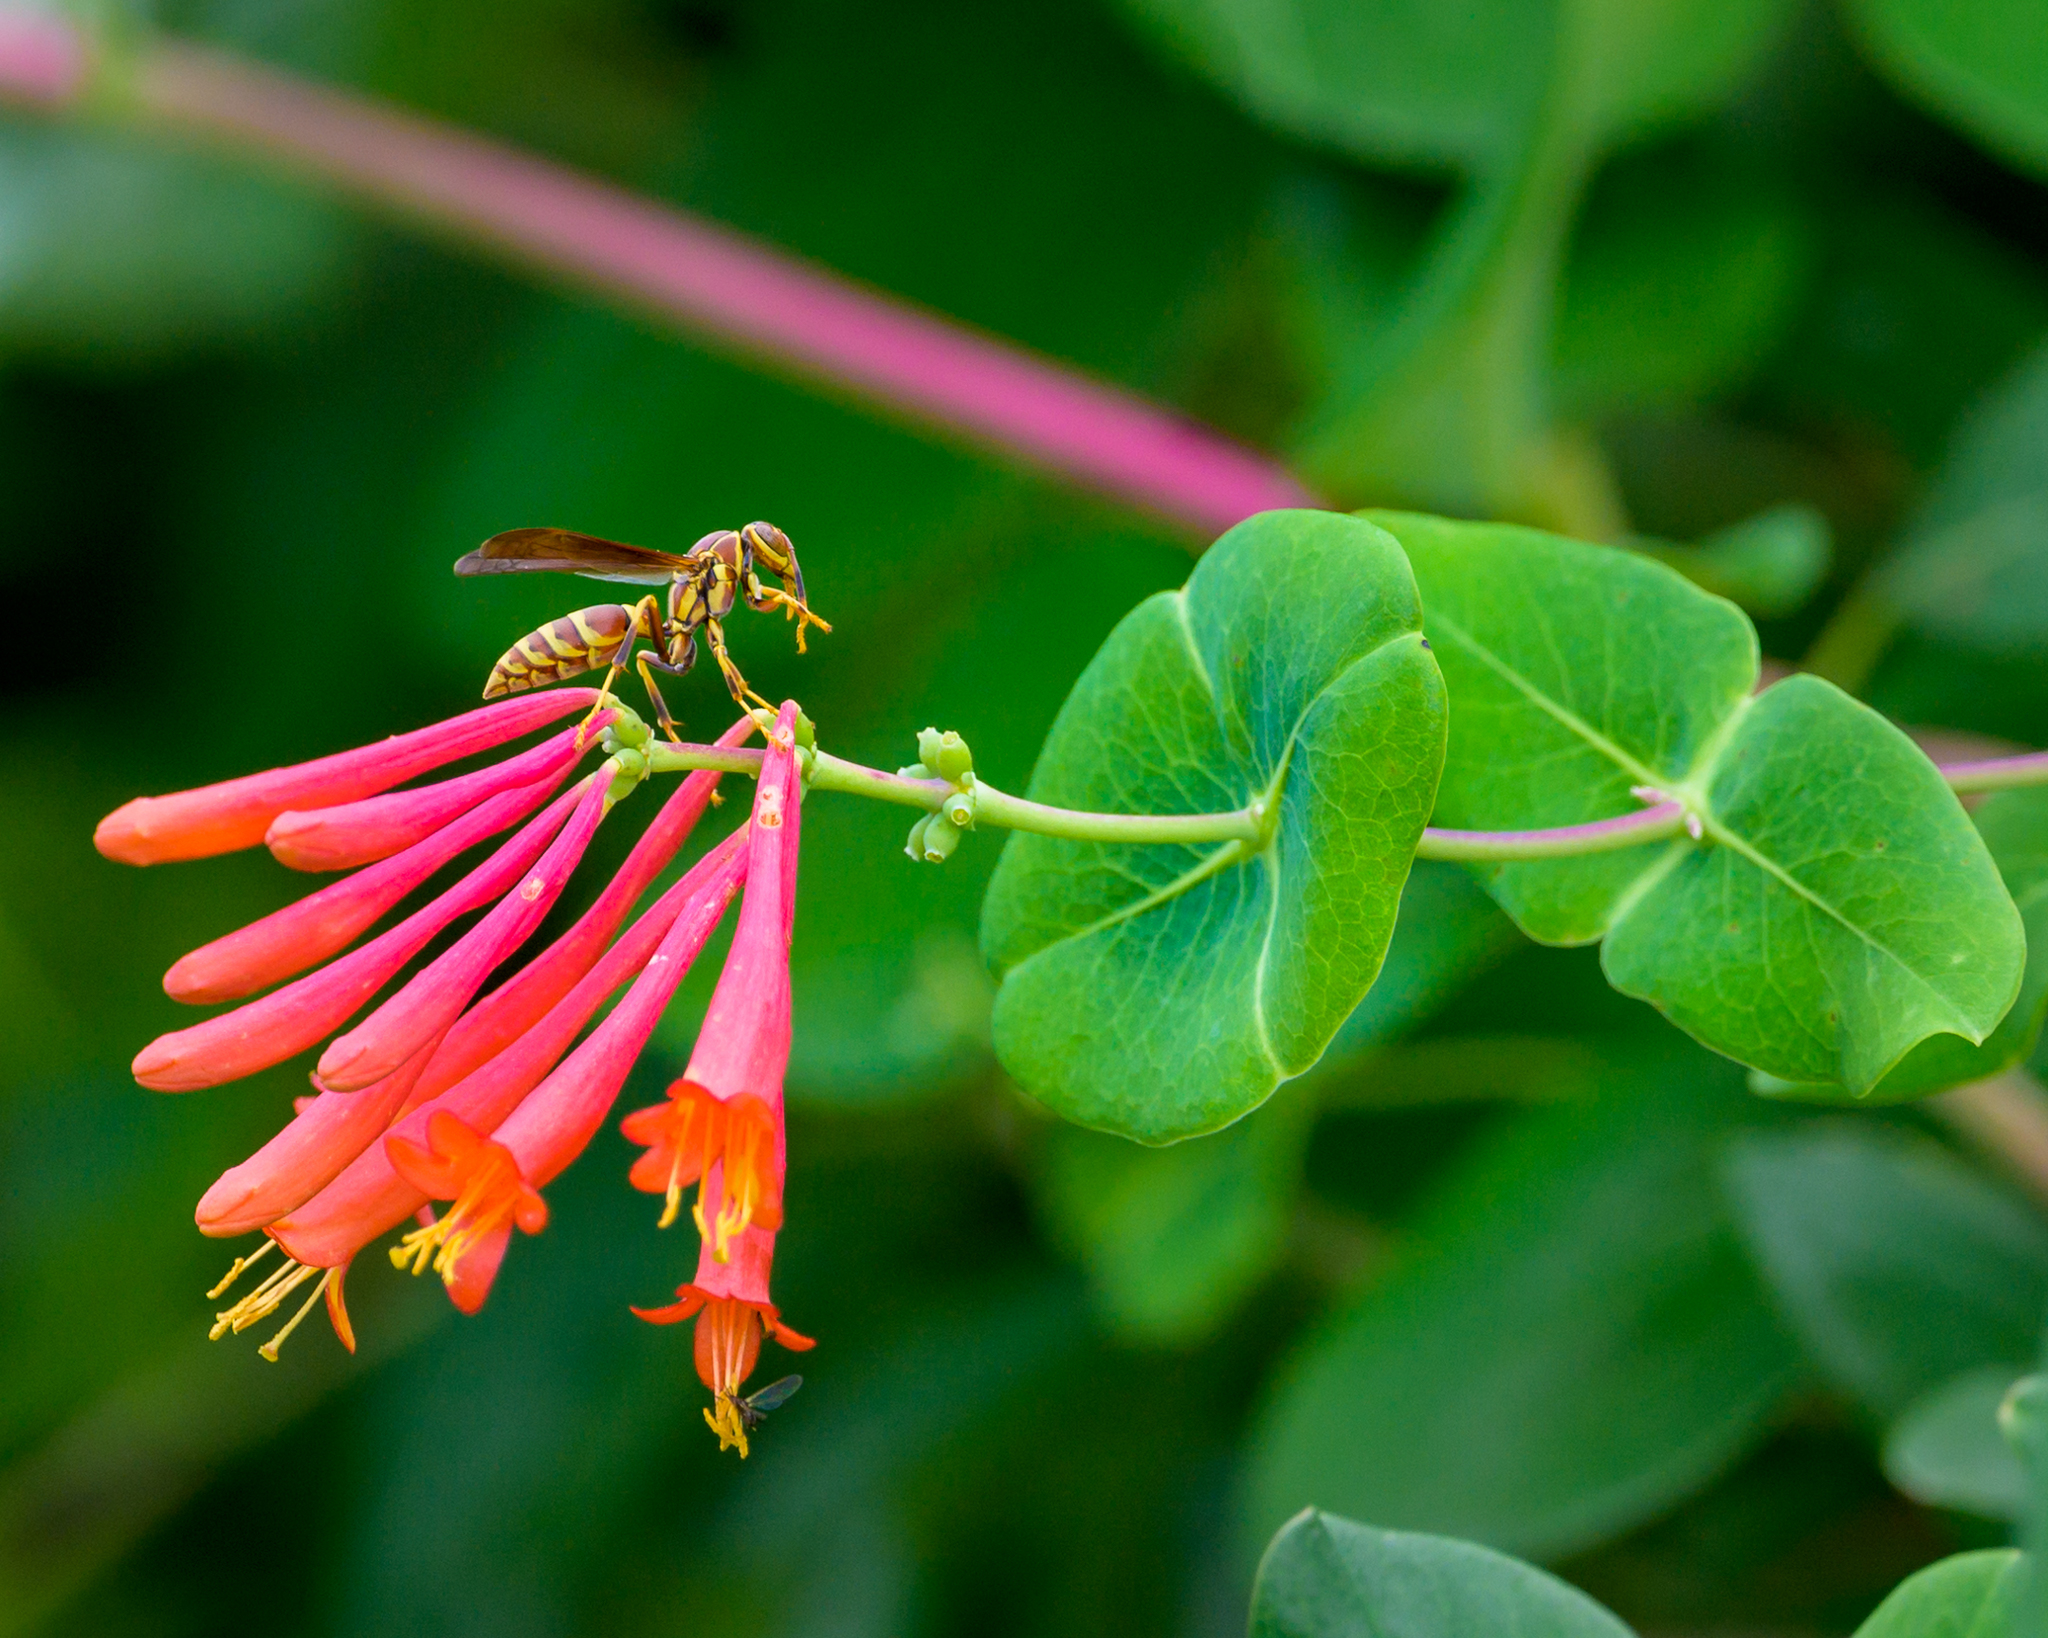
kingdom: Animalia
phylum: Arthropoda
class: Insecta
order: Hymenoptera
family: Eumenidae
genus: Polistes
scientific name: Polistes exclamans
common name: Paper wasp
